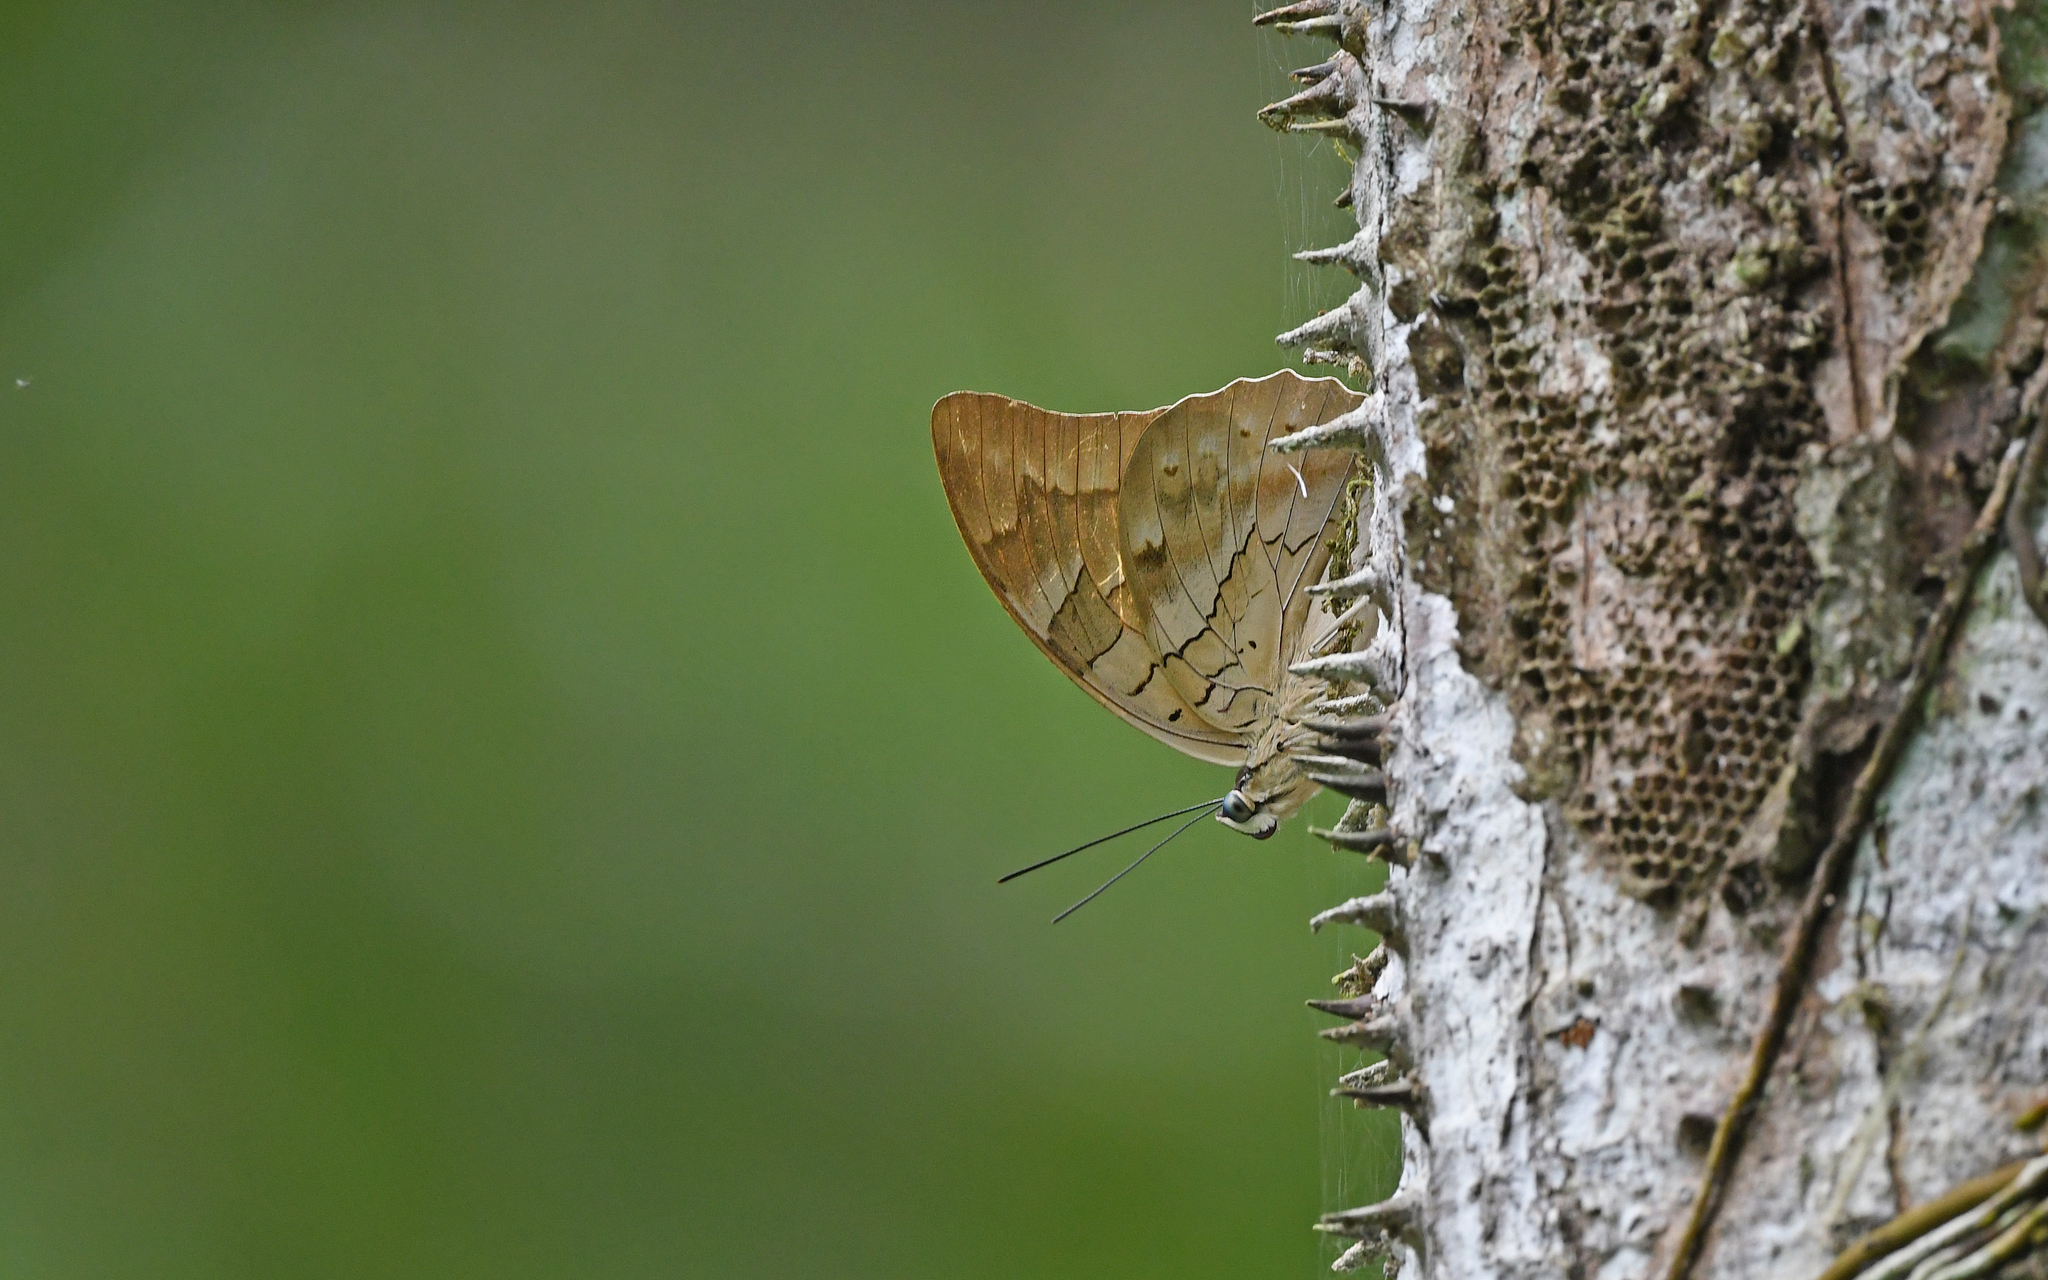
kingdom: Animalia
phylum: Arthropoda
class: Insecta
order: Lepidoptera
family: Nymphalidae
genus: Prepona
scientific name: Prepona Archaeoprepona camilla
